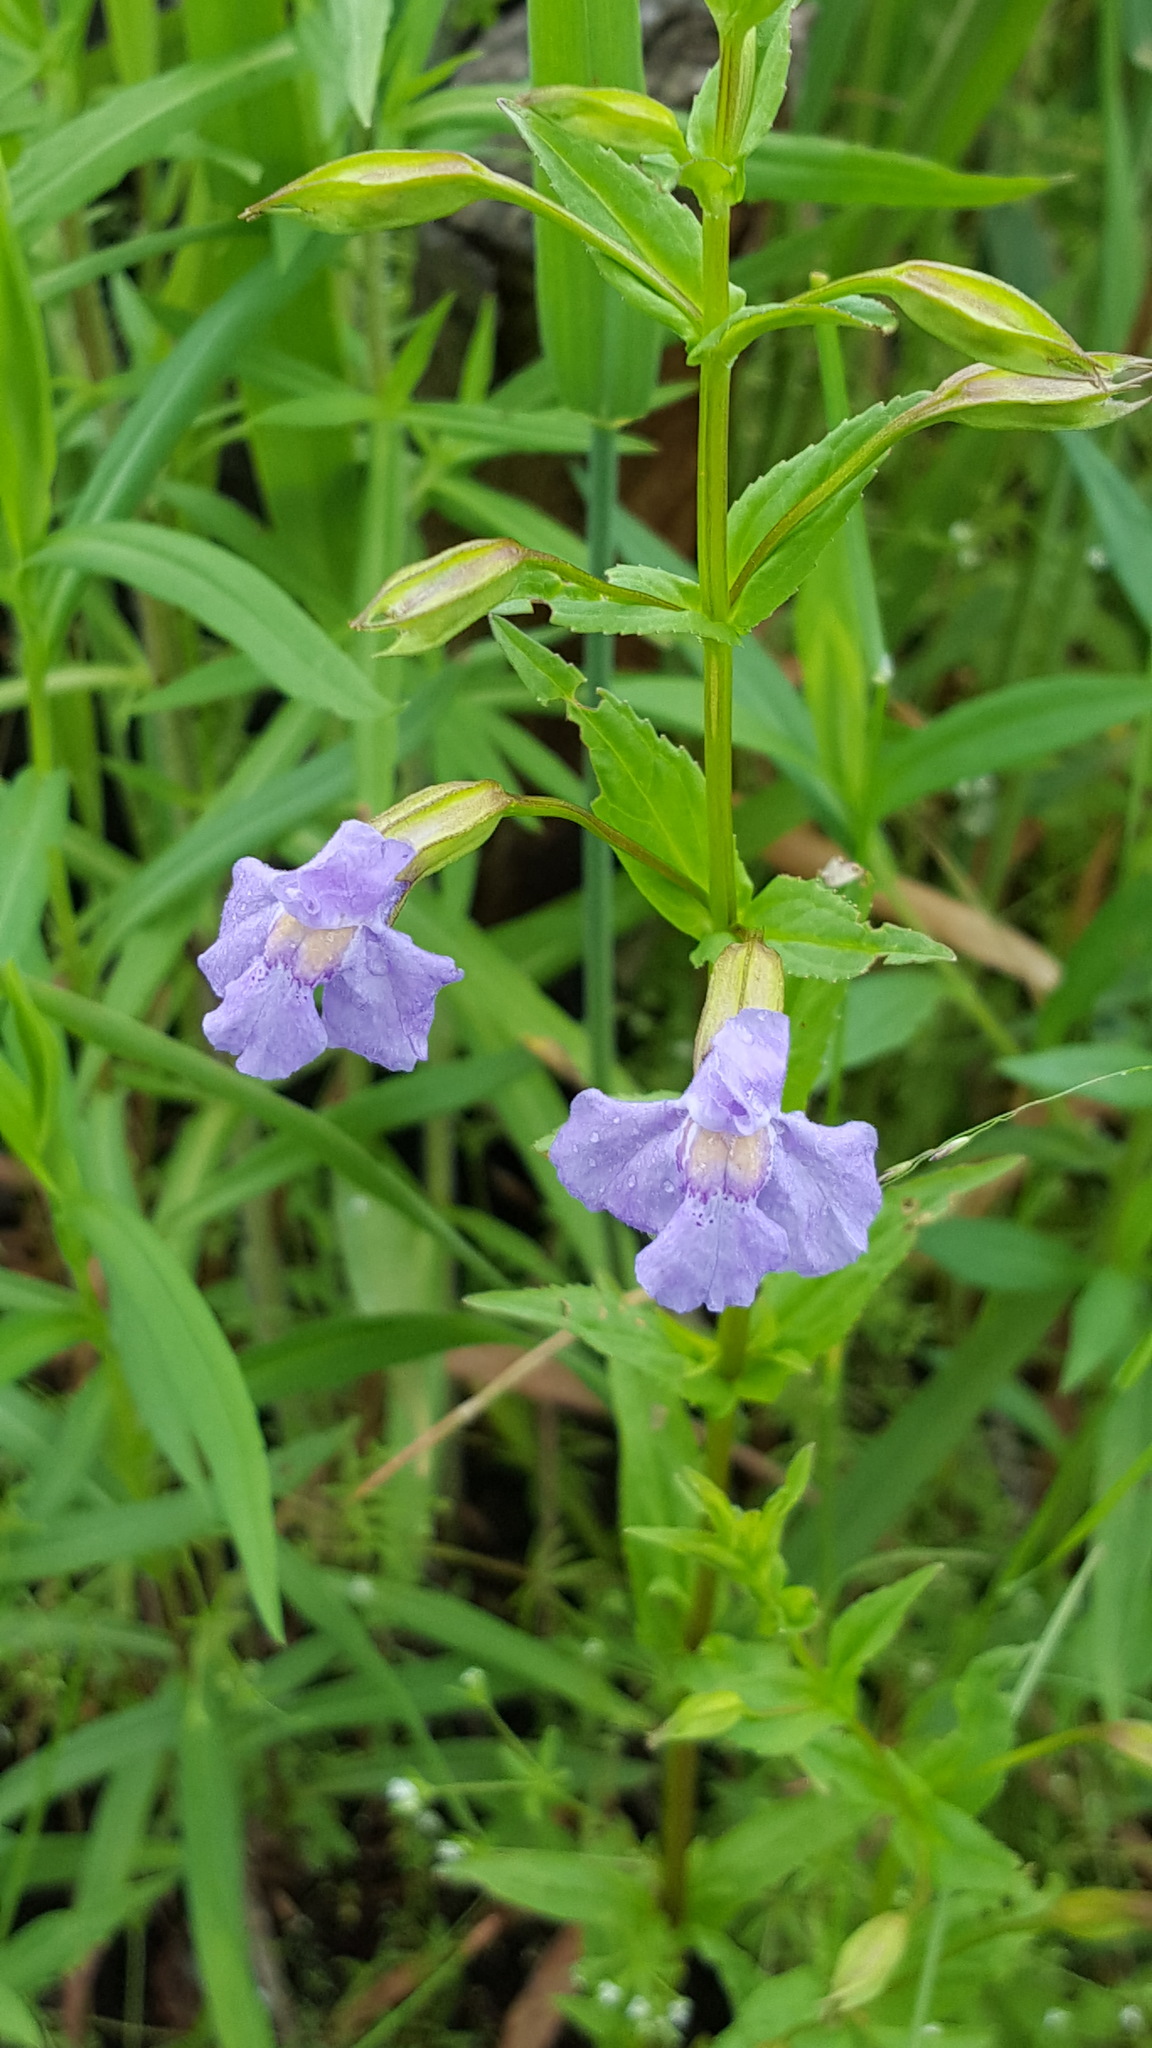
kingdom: Plantae
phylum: Tracheophyta
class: Magnoliopsida
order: Lamiales
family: Phrymaceae
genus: Mimulus
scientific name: Mimulus ringens
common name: Allegheny monkeyflower
